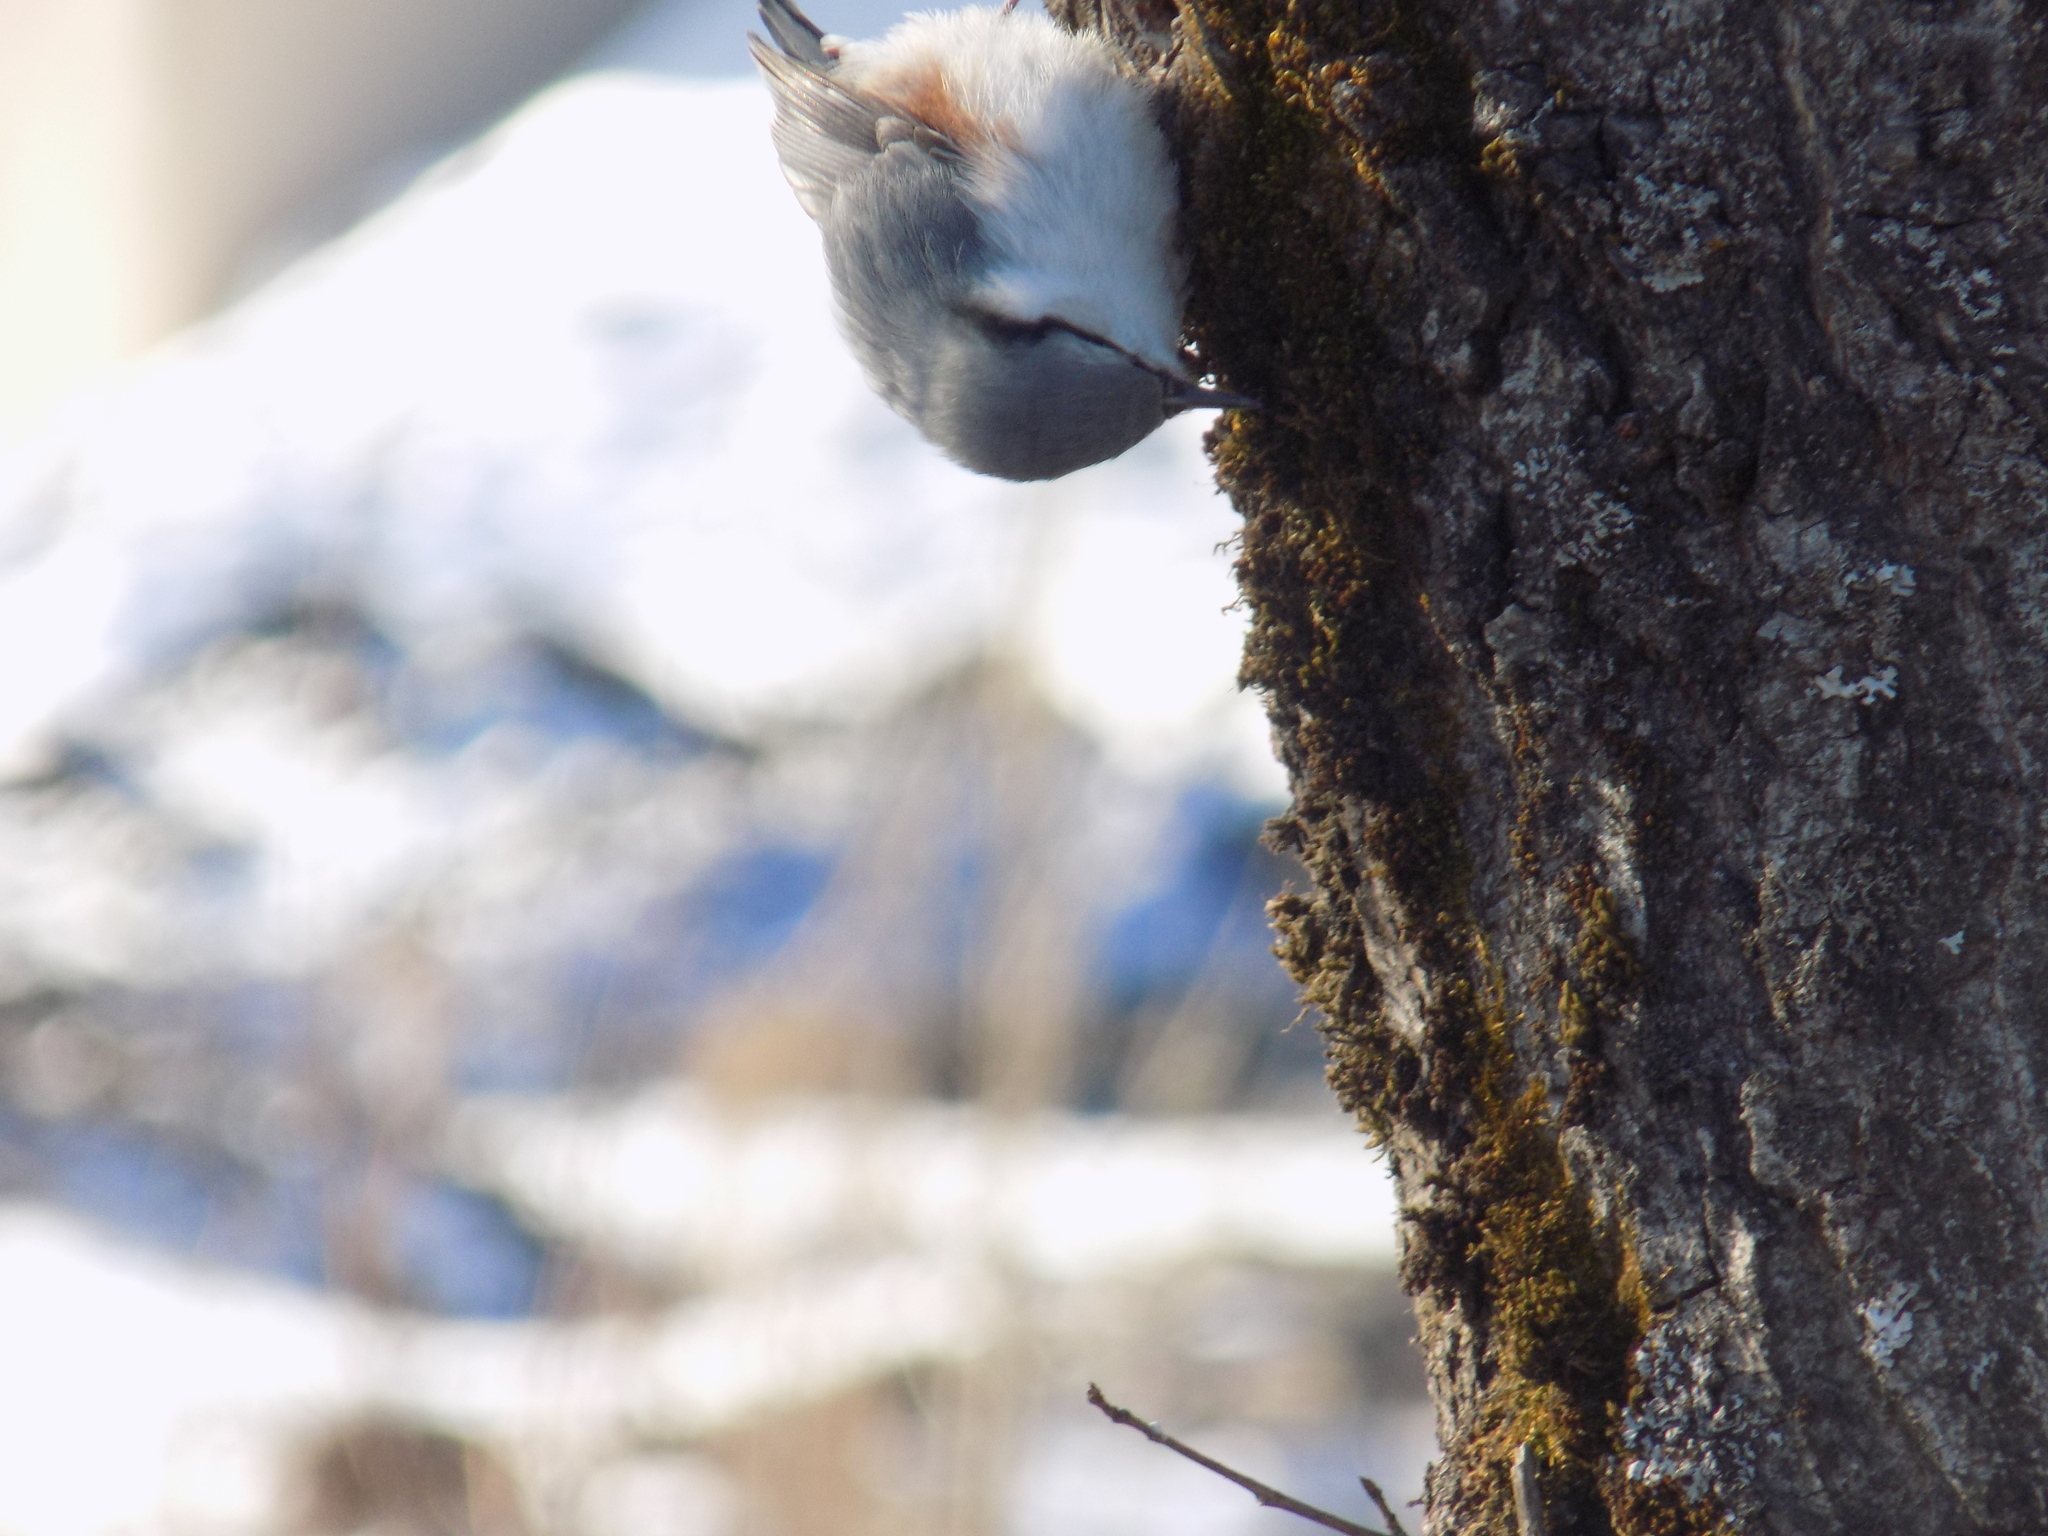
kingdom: Animalia
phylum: Chordata
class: Aves
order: Passeriformes
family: Sittidae
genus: Sitta
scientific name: Sitta europaea
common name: Eurasian nuthatch
